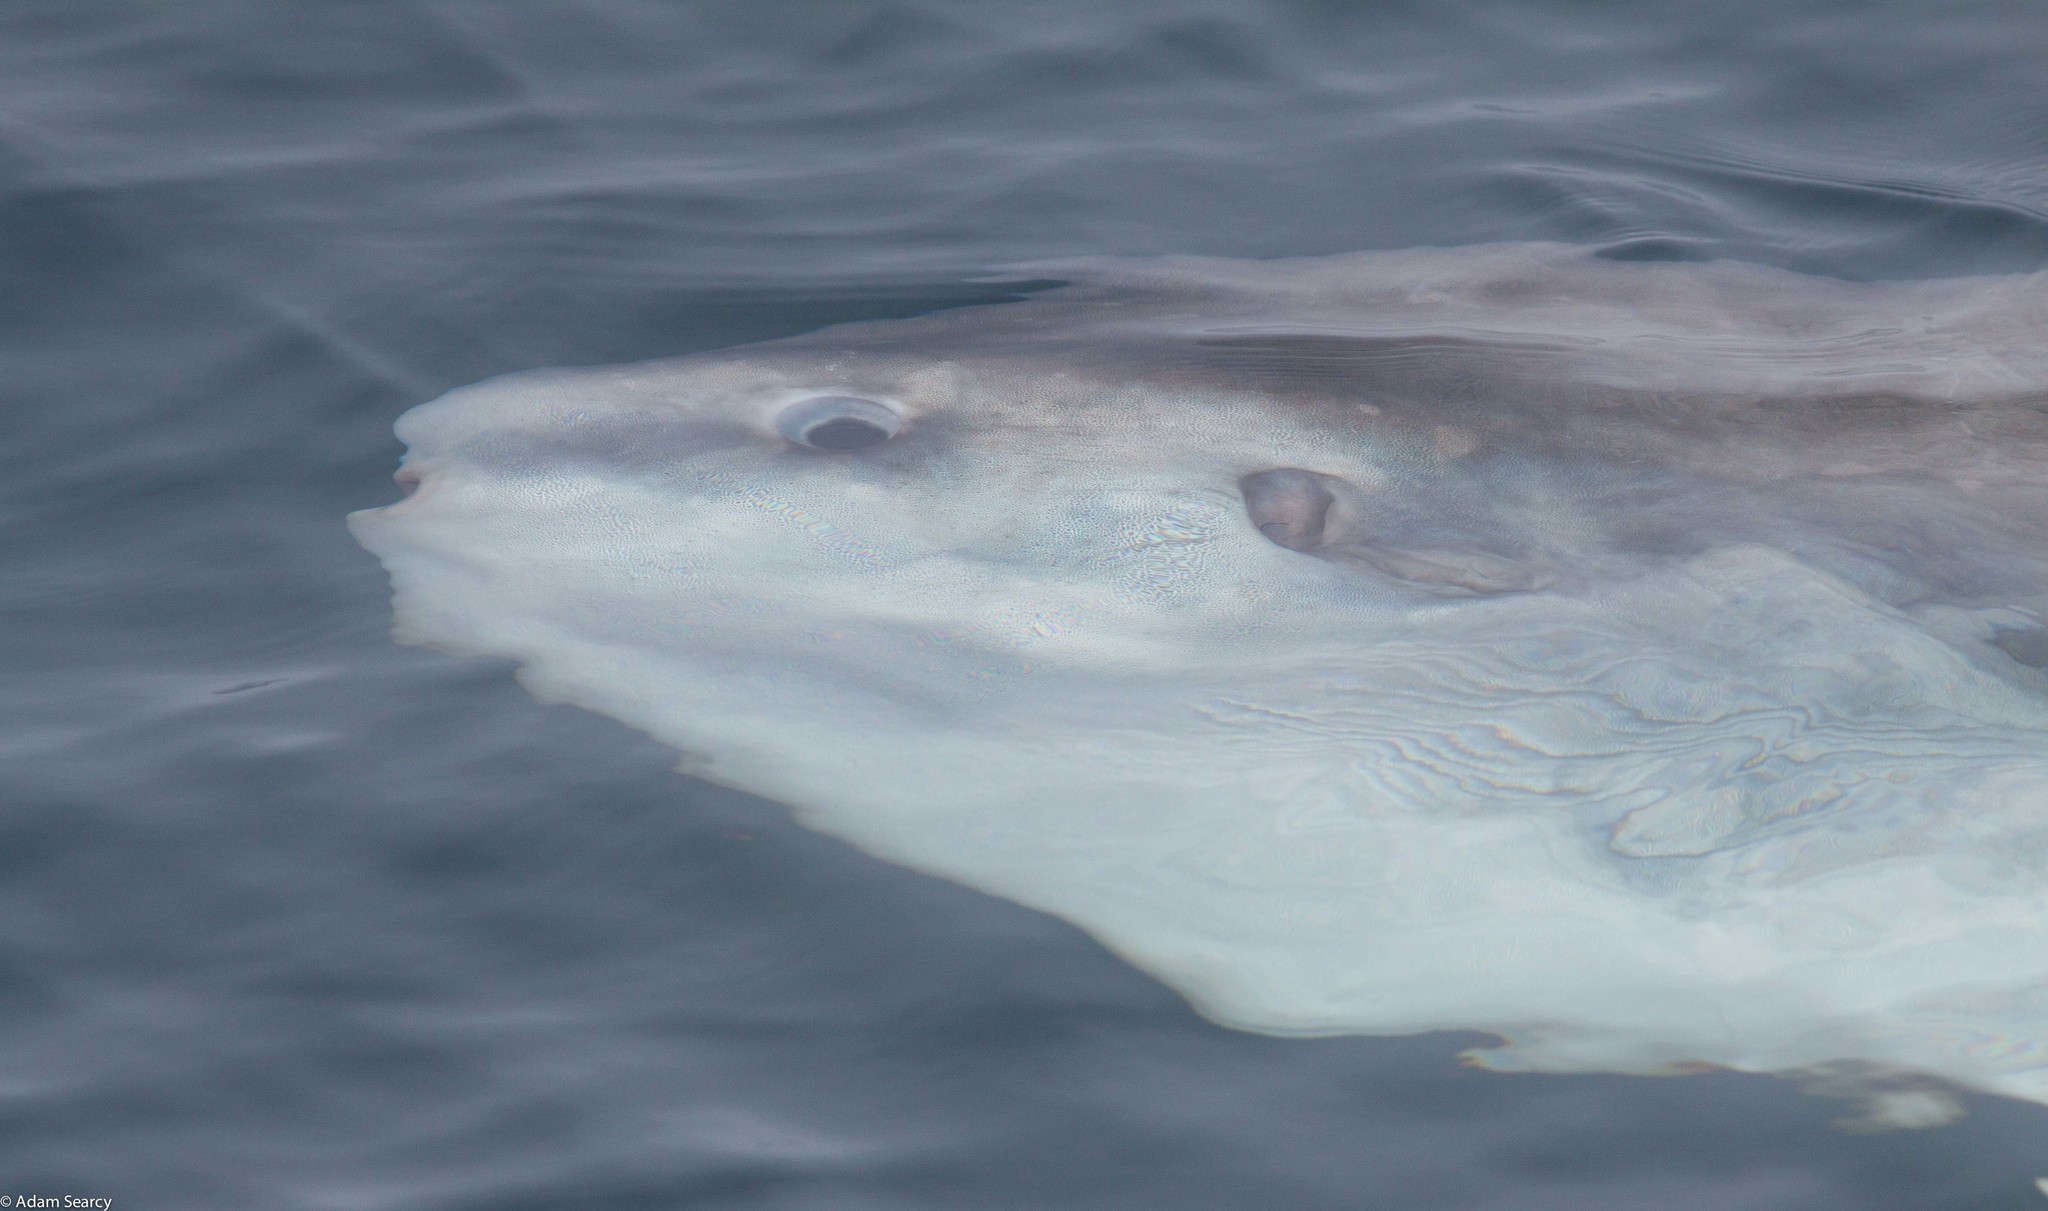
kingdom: Animalia
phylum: Chordata
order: Tetraodontiformes
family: Molidae
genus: Mola
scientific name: Mola mola
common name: Ocean sunfish
